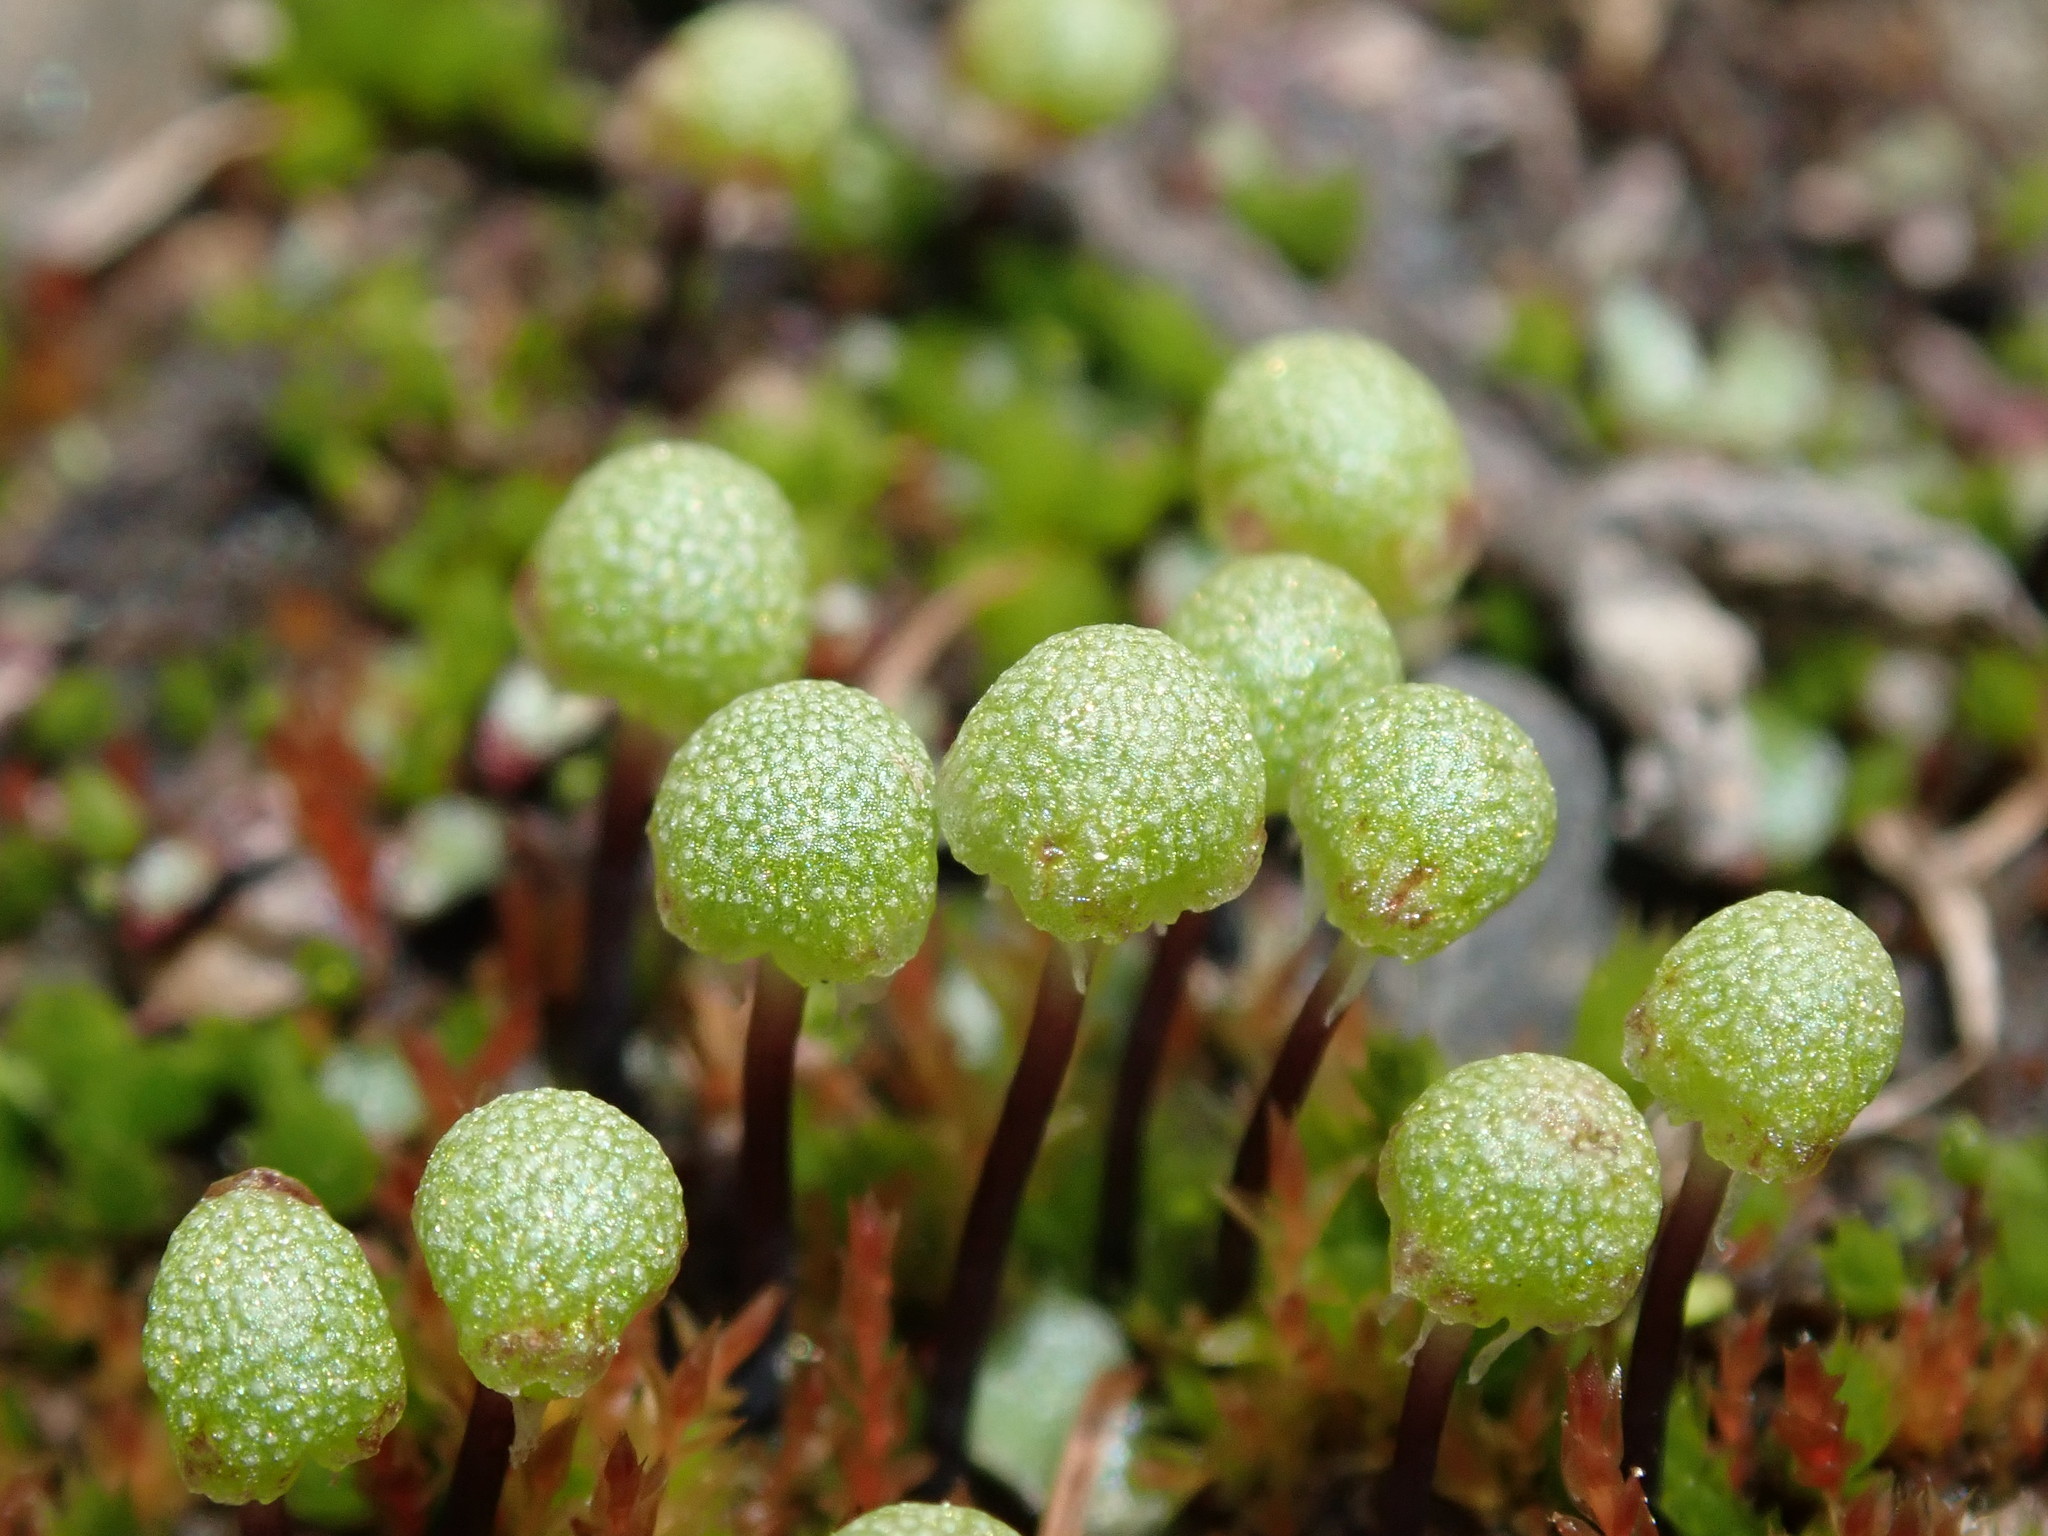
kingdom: Plantae
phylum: Marchantiophyta
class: Marchantiopsida
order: Marchantiales
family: Aytoniaceae
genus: Mannia
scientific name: Mannia gracilis
